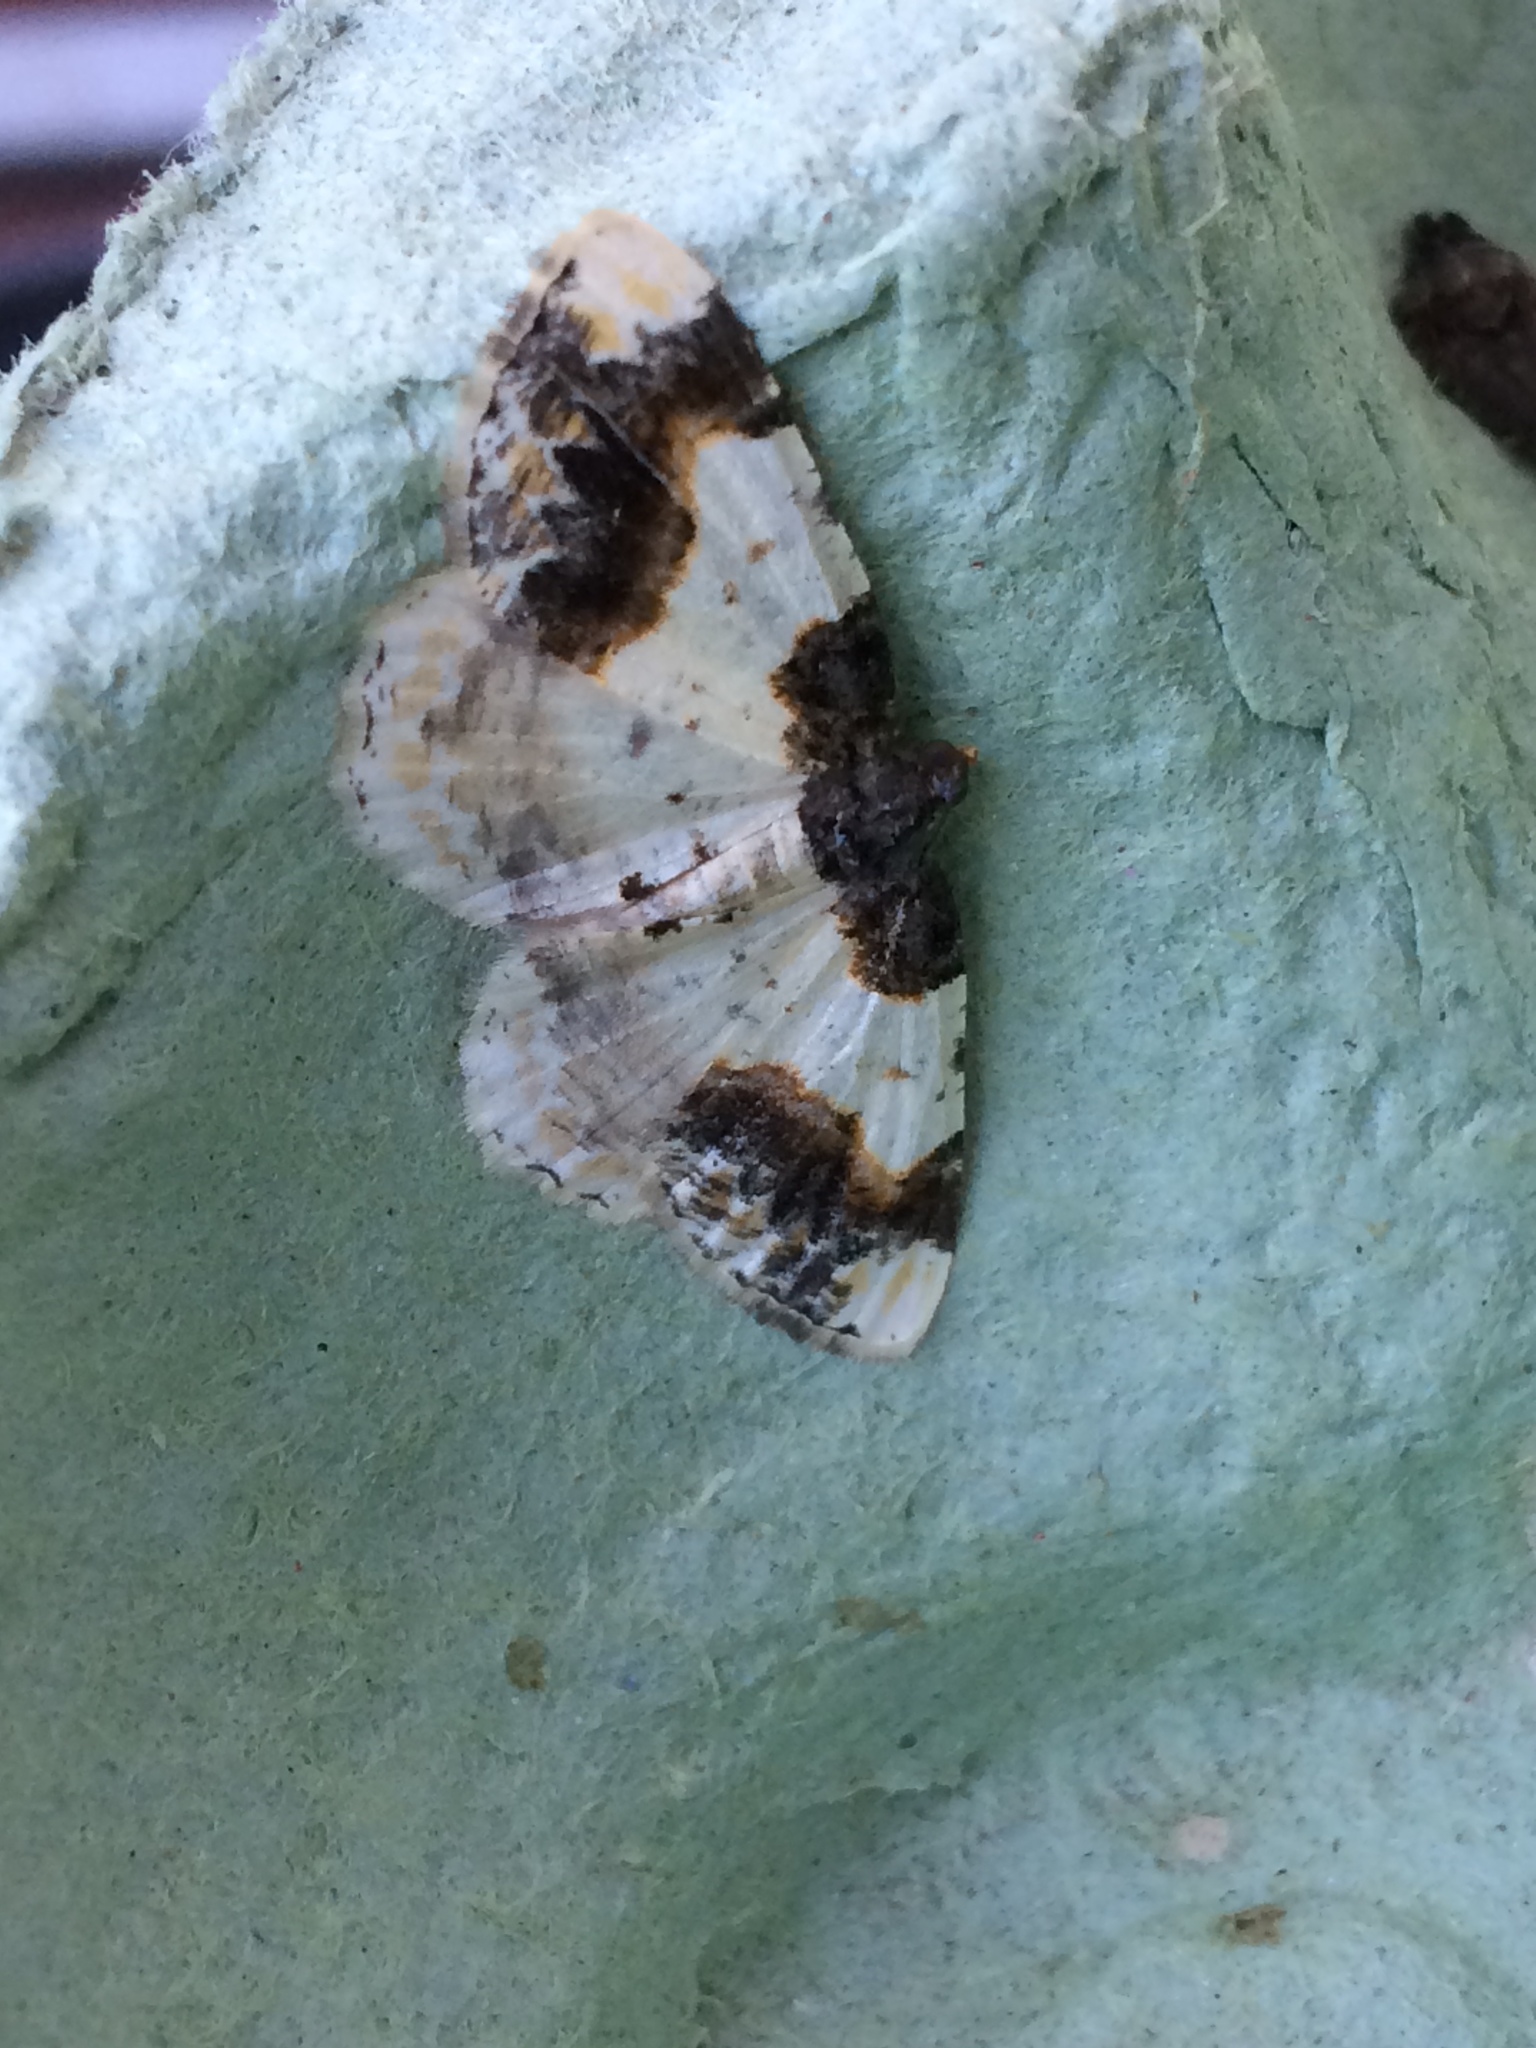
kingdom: Animalia
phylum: Arthropoda
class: Insecta
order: Lepidoptera
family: Geometridae
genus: Ligdia
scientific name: Ligdia adustata
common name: Scorched carpet
